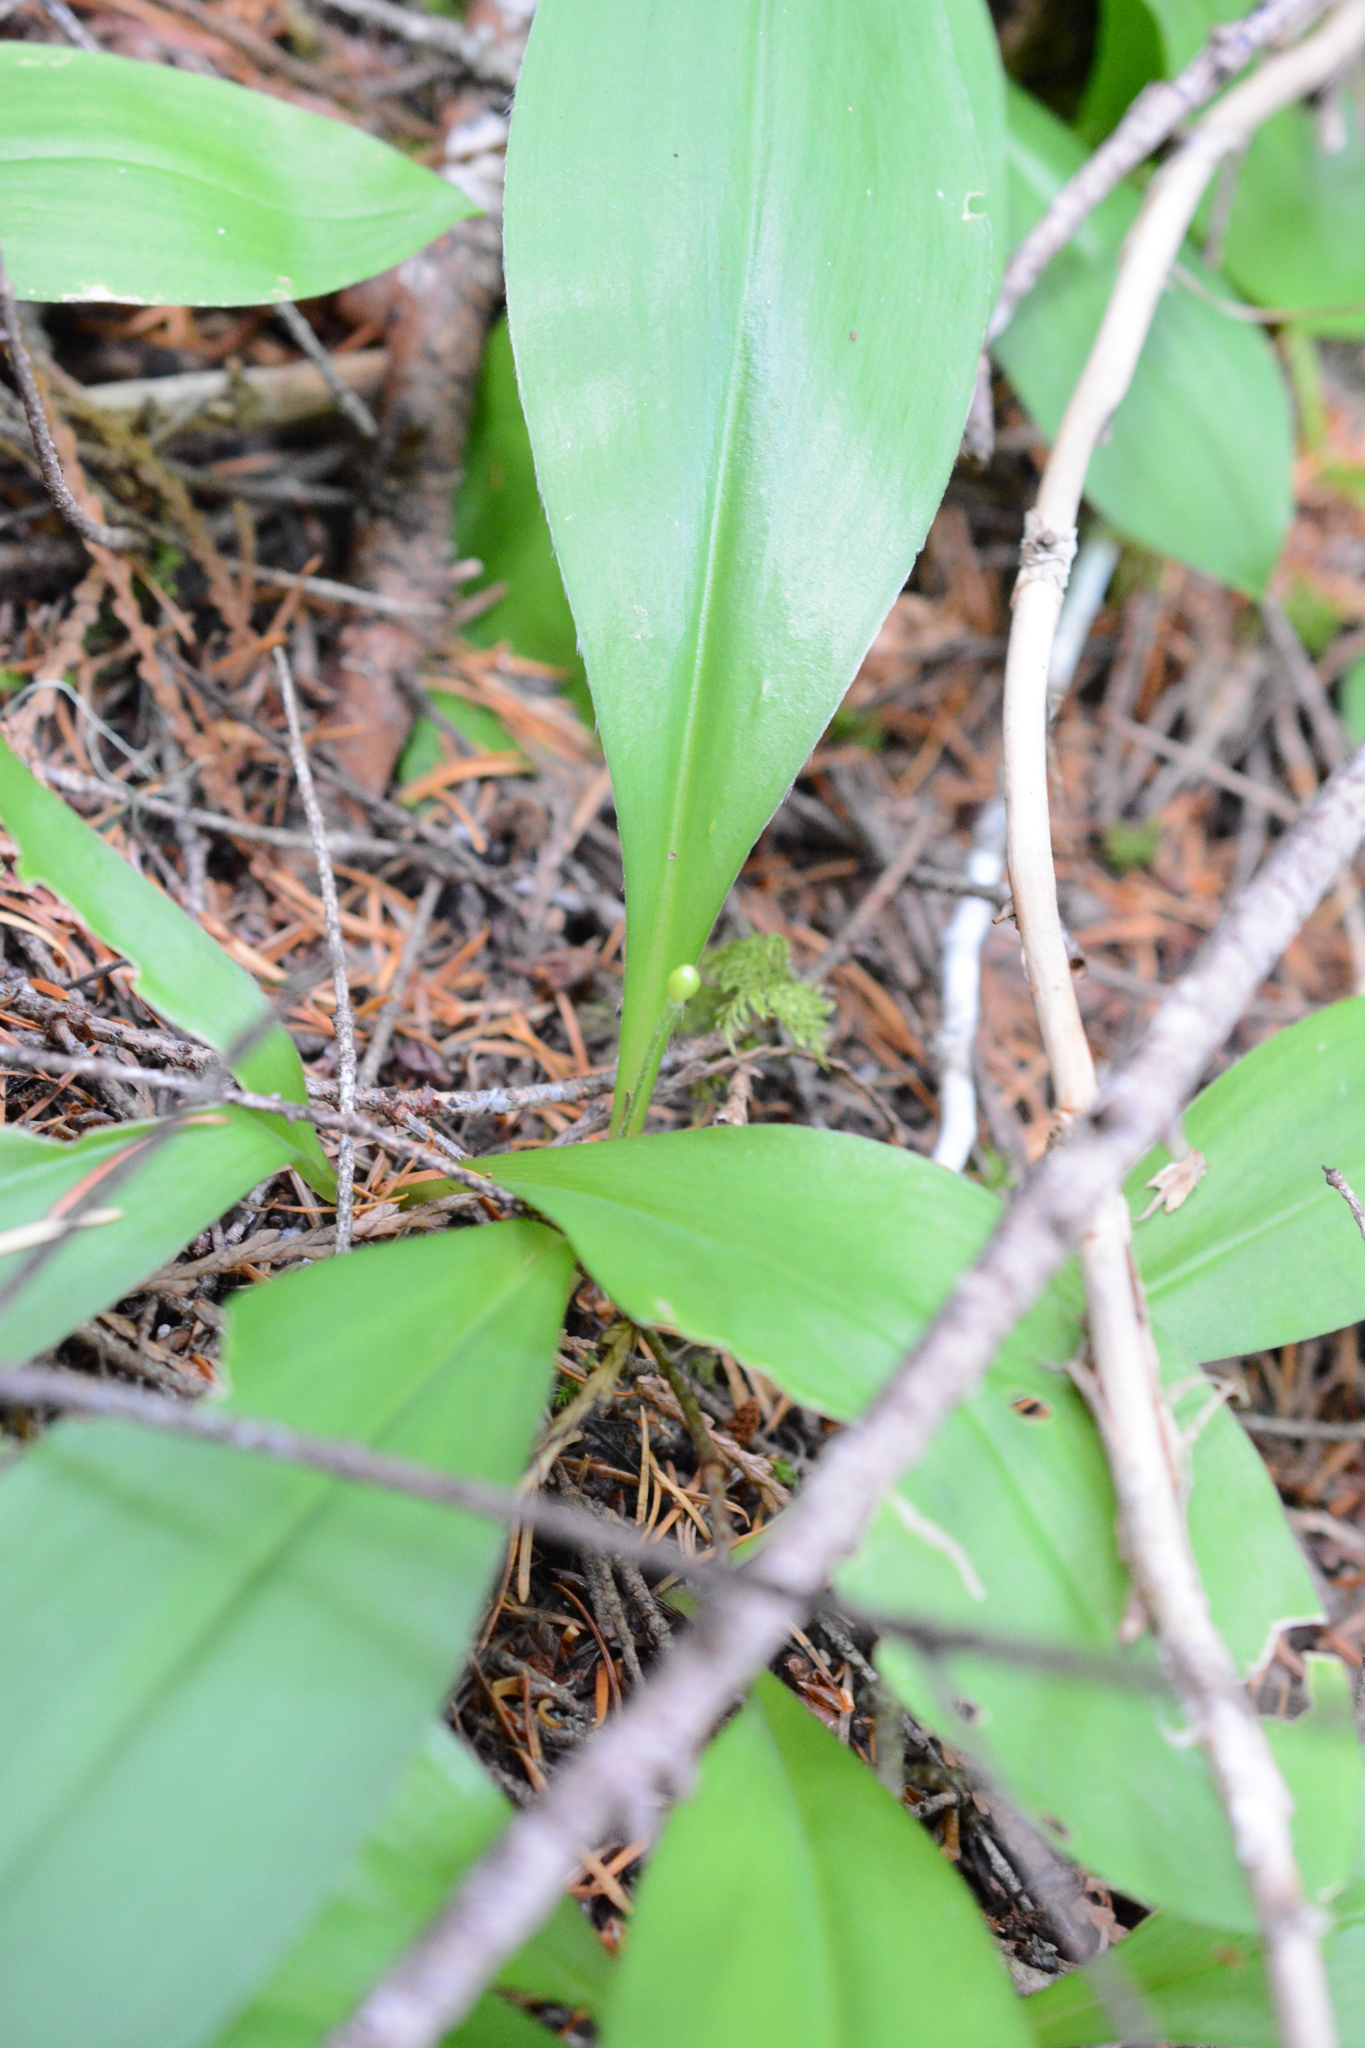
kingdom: Plantae
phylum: Tracheophyta
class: Liliopsida
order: Liliales
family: Liliaceae
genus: Clintonia
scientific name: Clintonia uniflora
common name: Queen's cup
